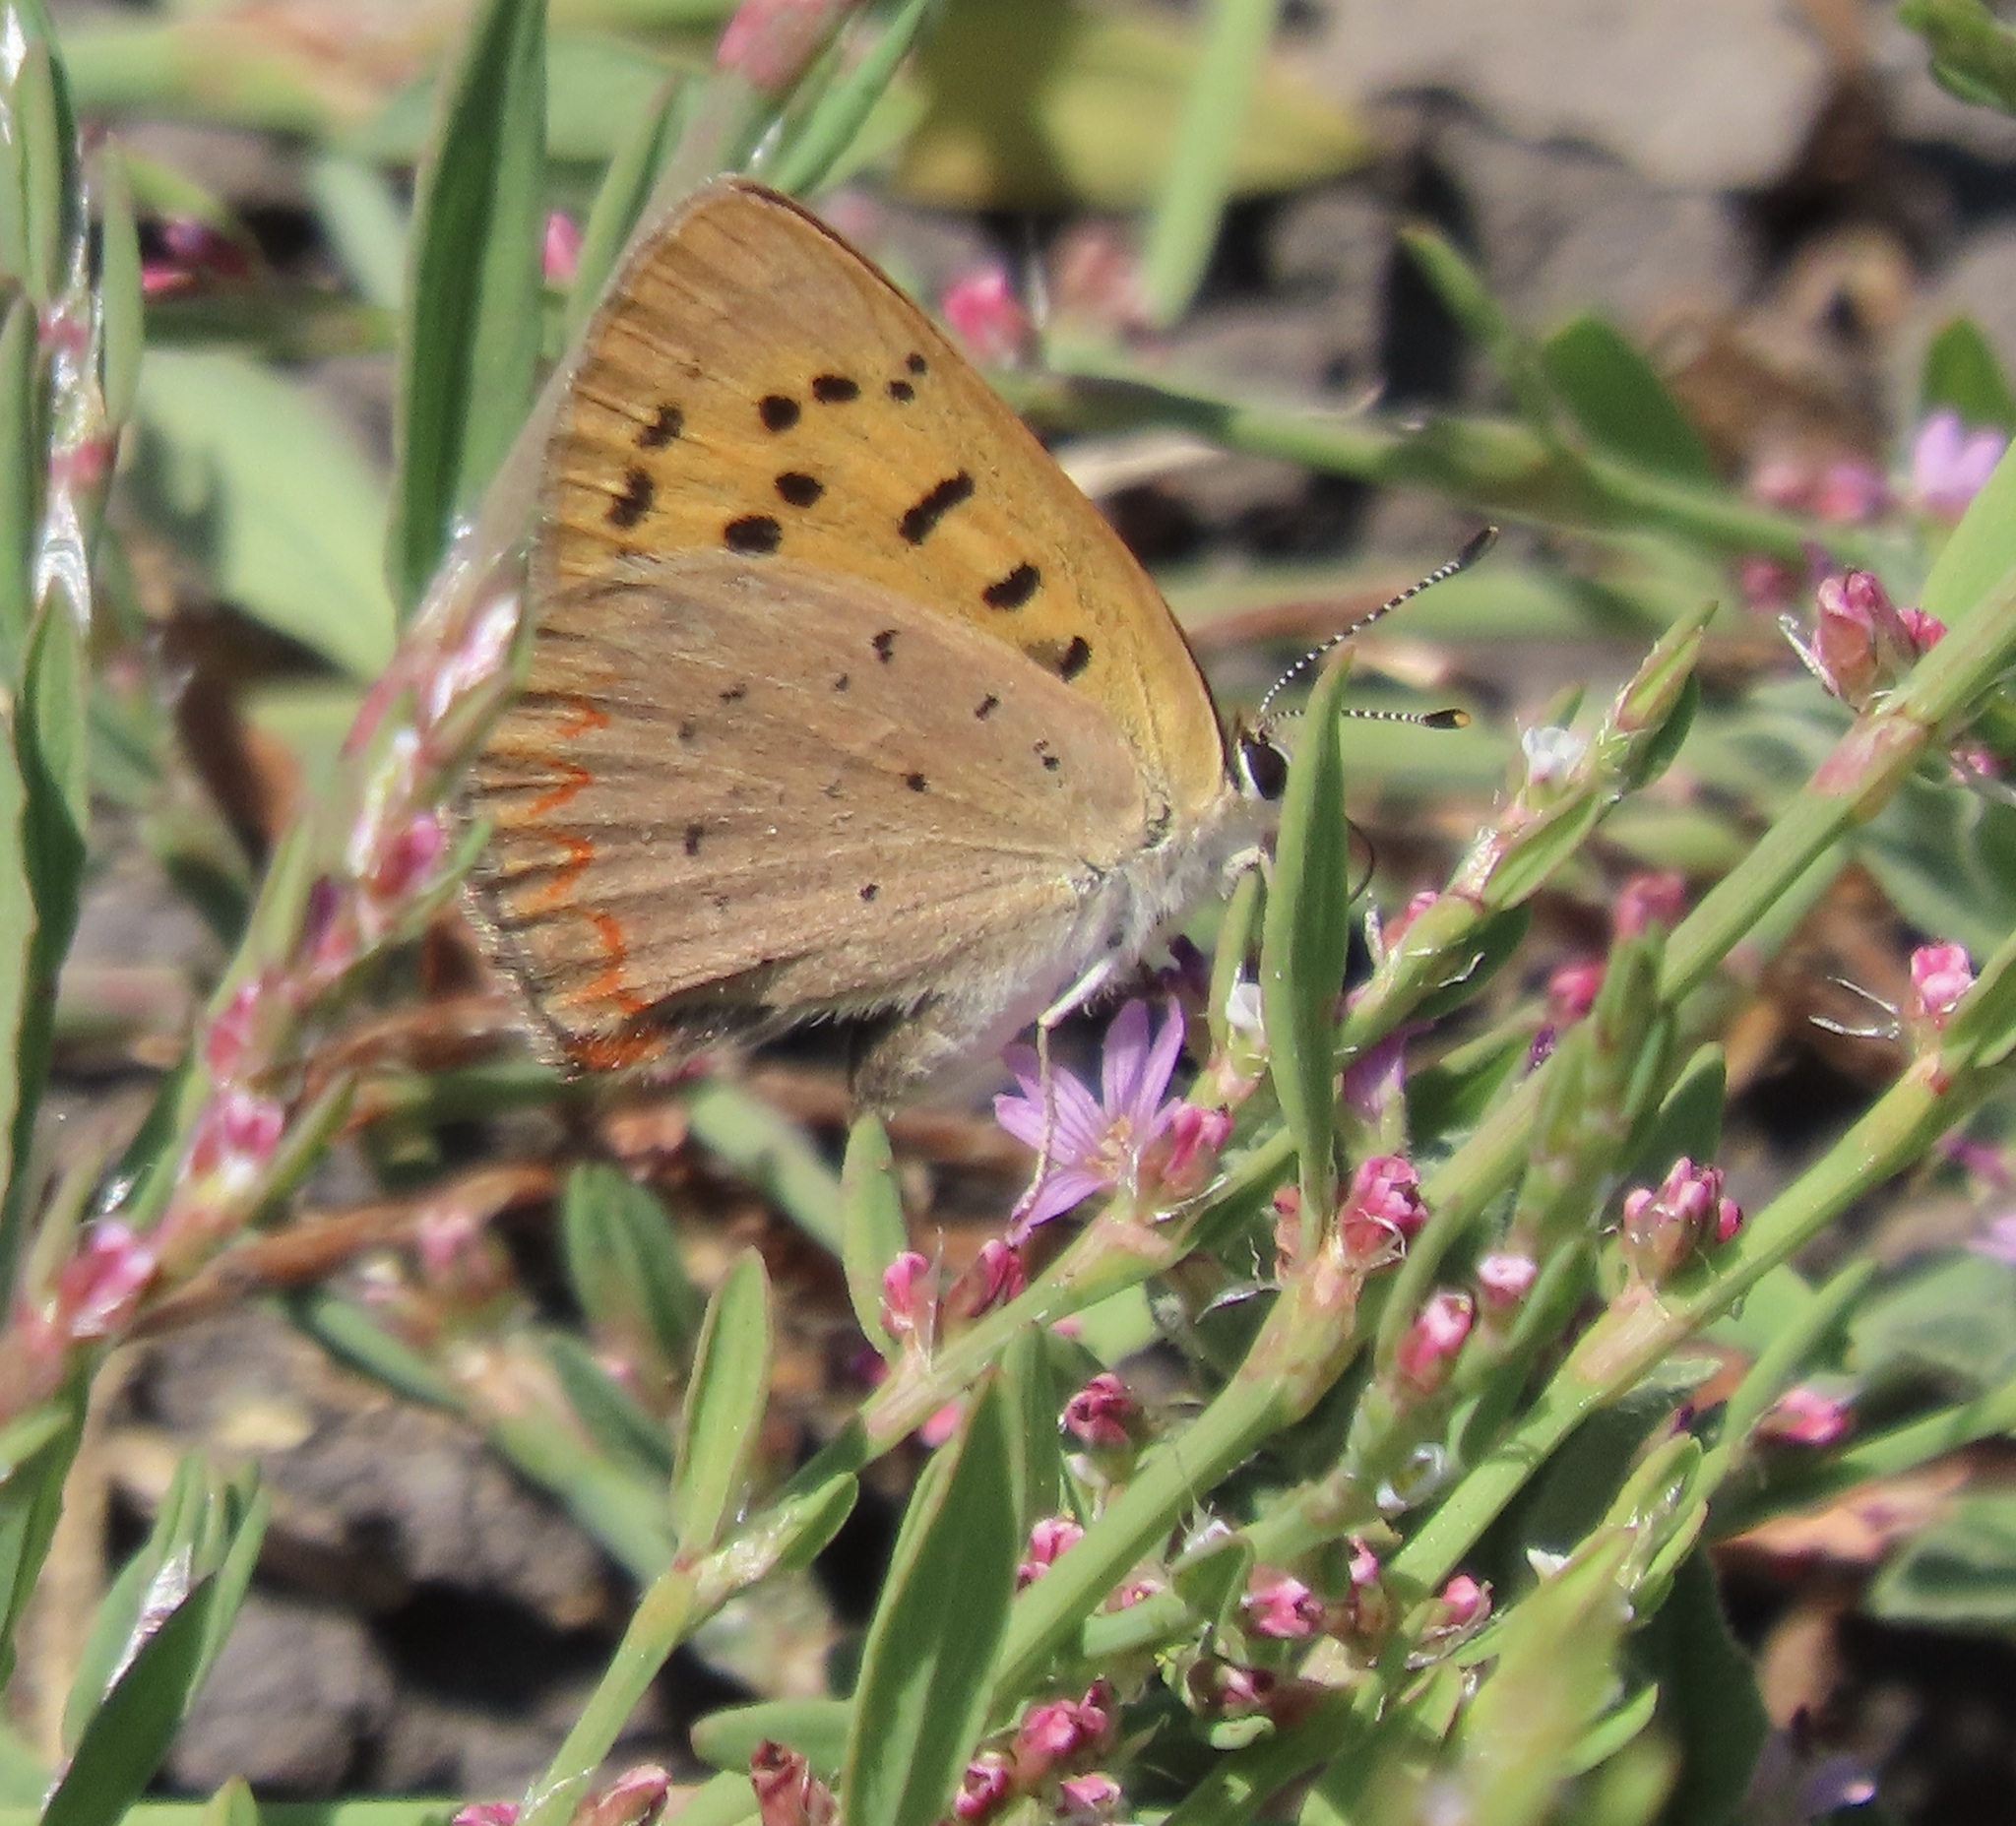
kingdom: Plantae
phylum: Tracheophyta
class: Magnoliopsida
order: Caryophyllales
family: Polygonaceae
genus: Polygonum
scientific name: Polygonum aviculare
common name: Prostrate knotweed
